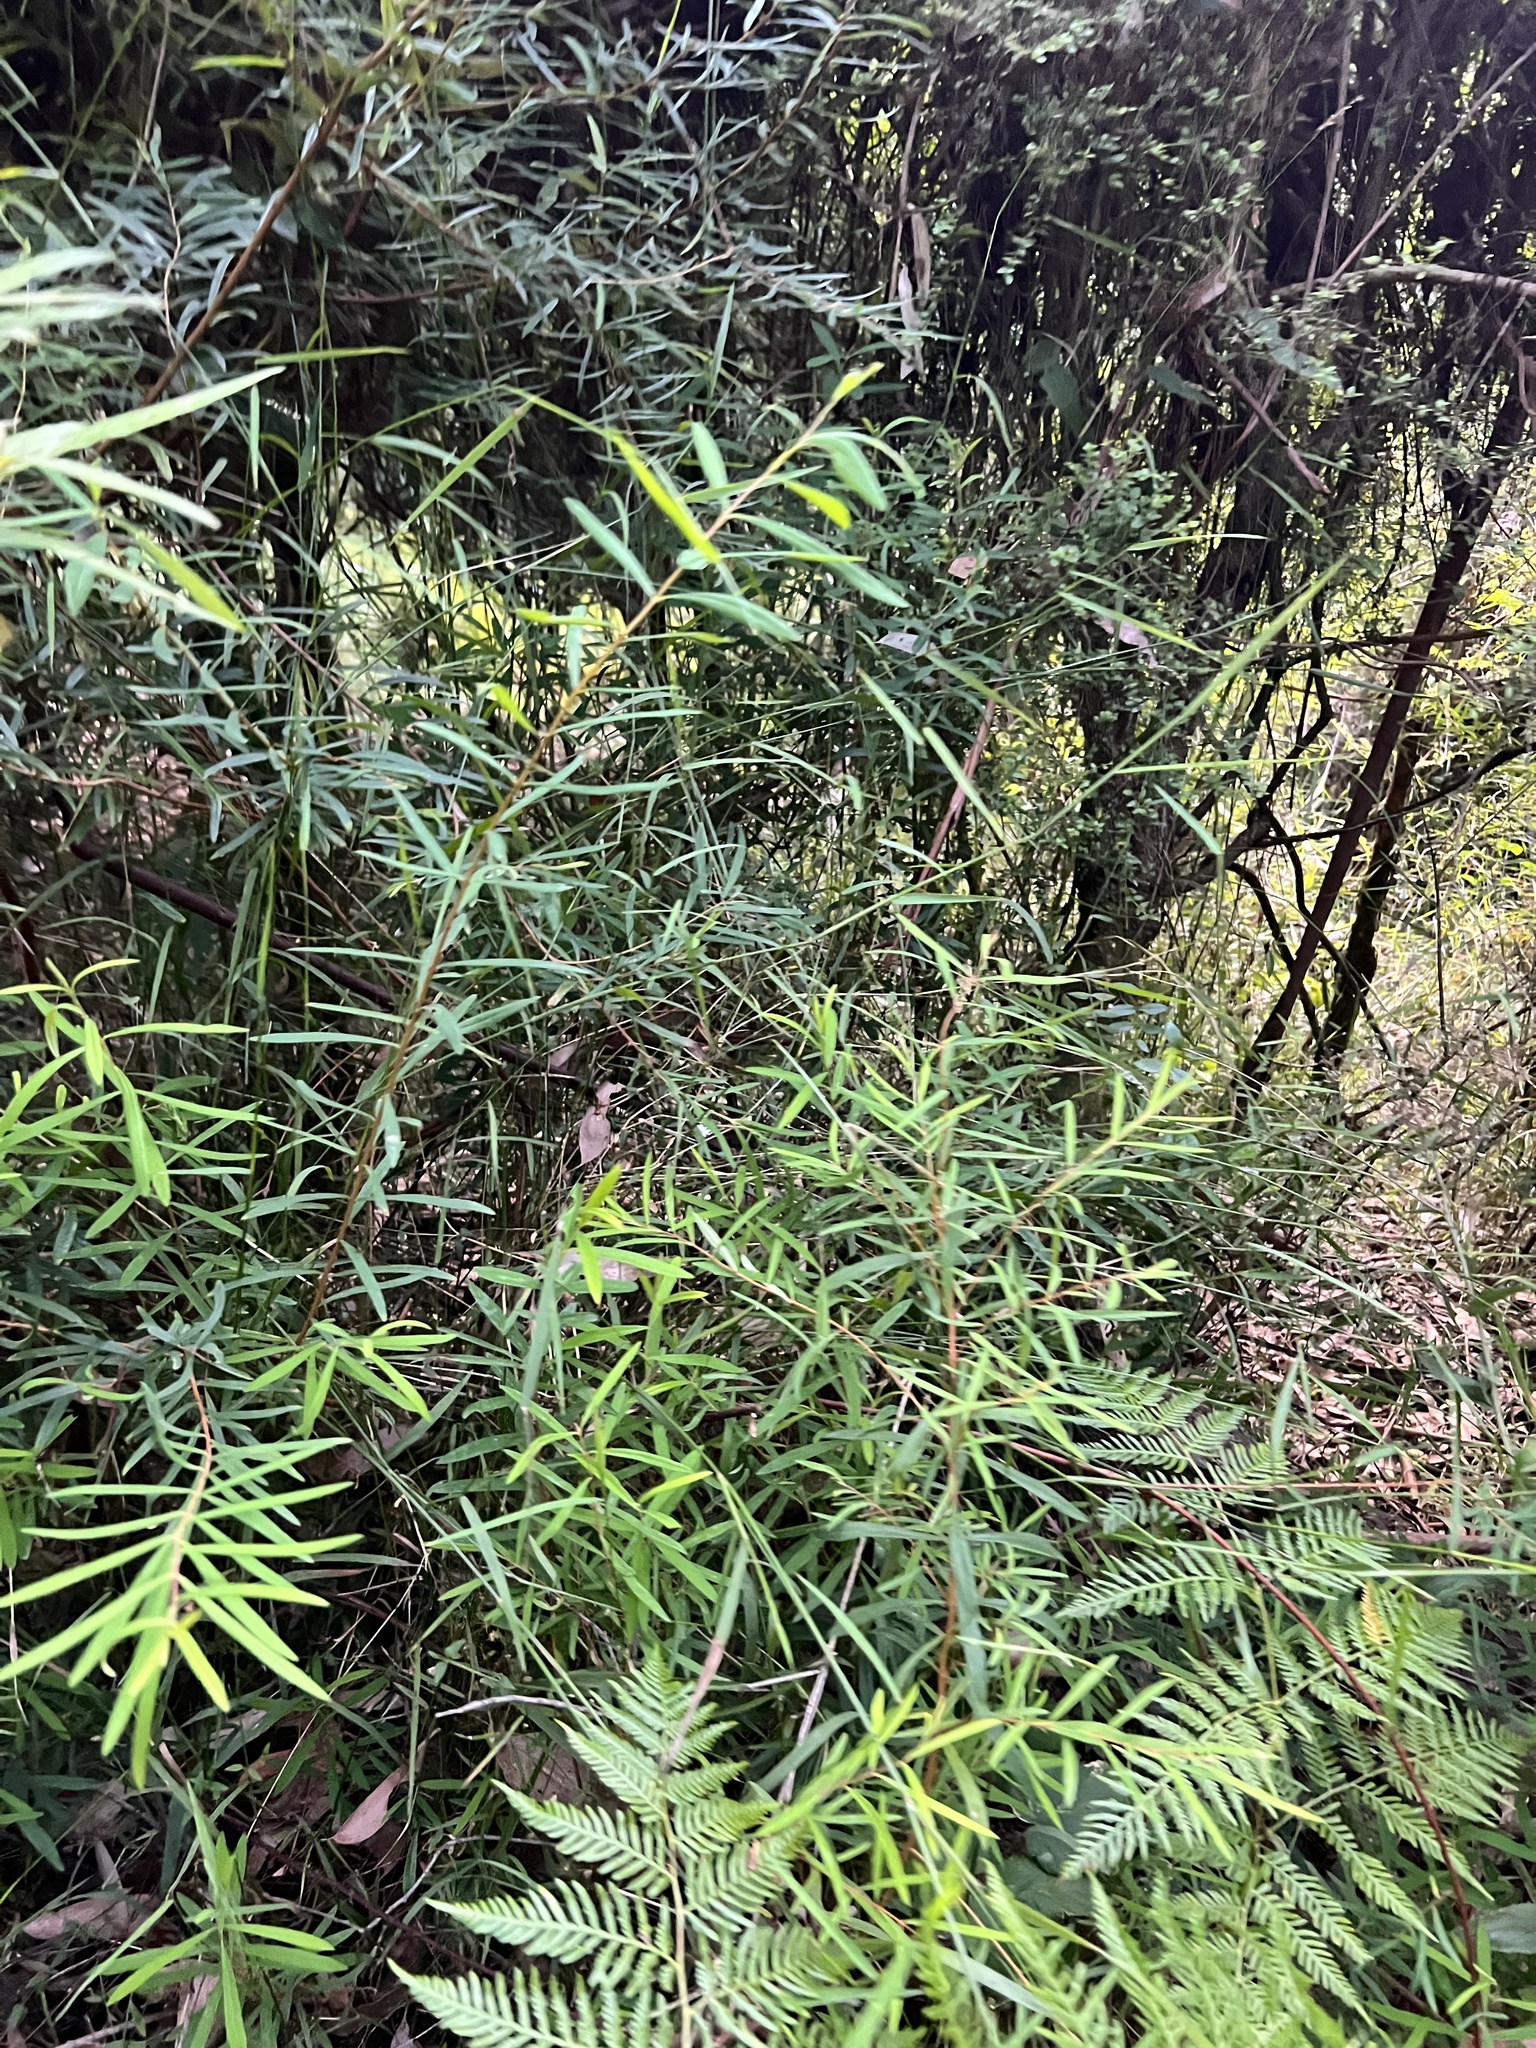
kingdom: Plantae
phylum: Tracheophyta
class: Magnoliopsida
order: Malvales
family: Thymelaeaceae
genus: Pimelea
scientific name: Pimelea axiflora
